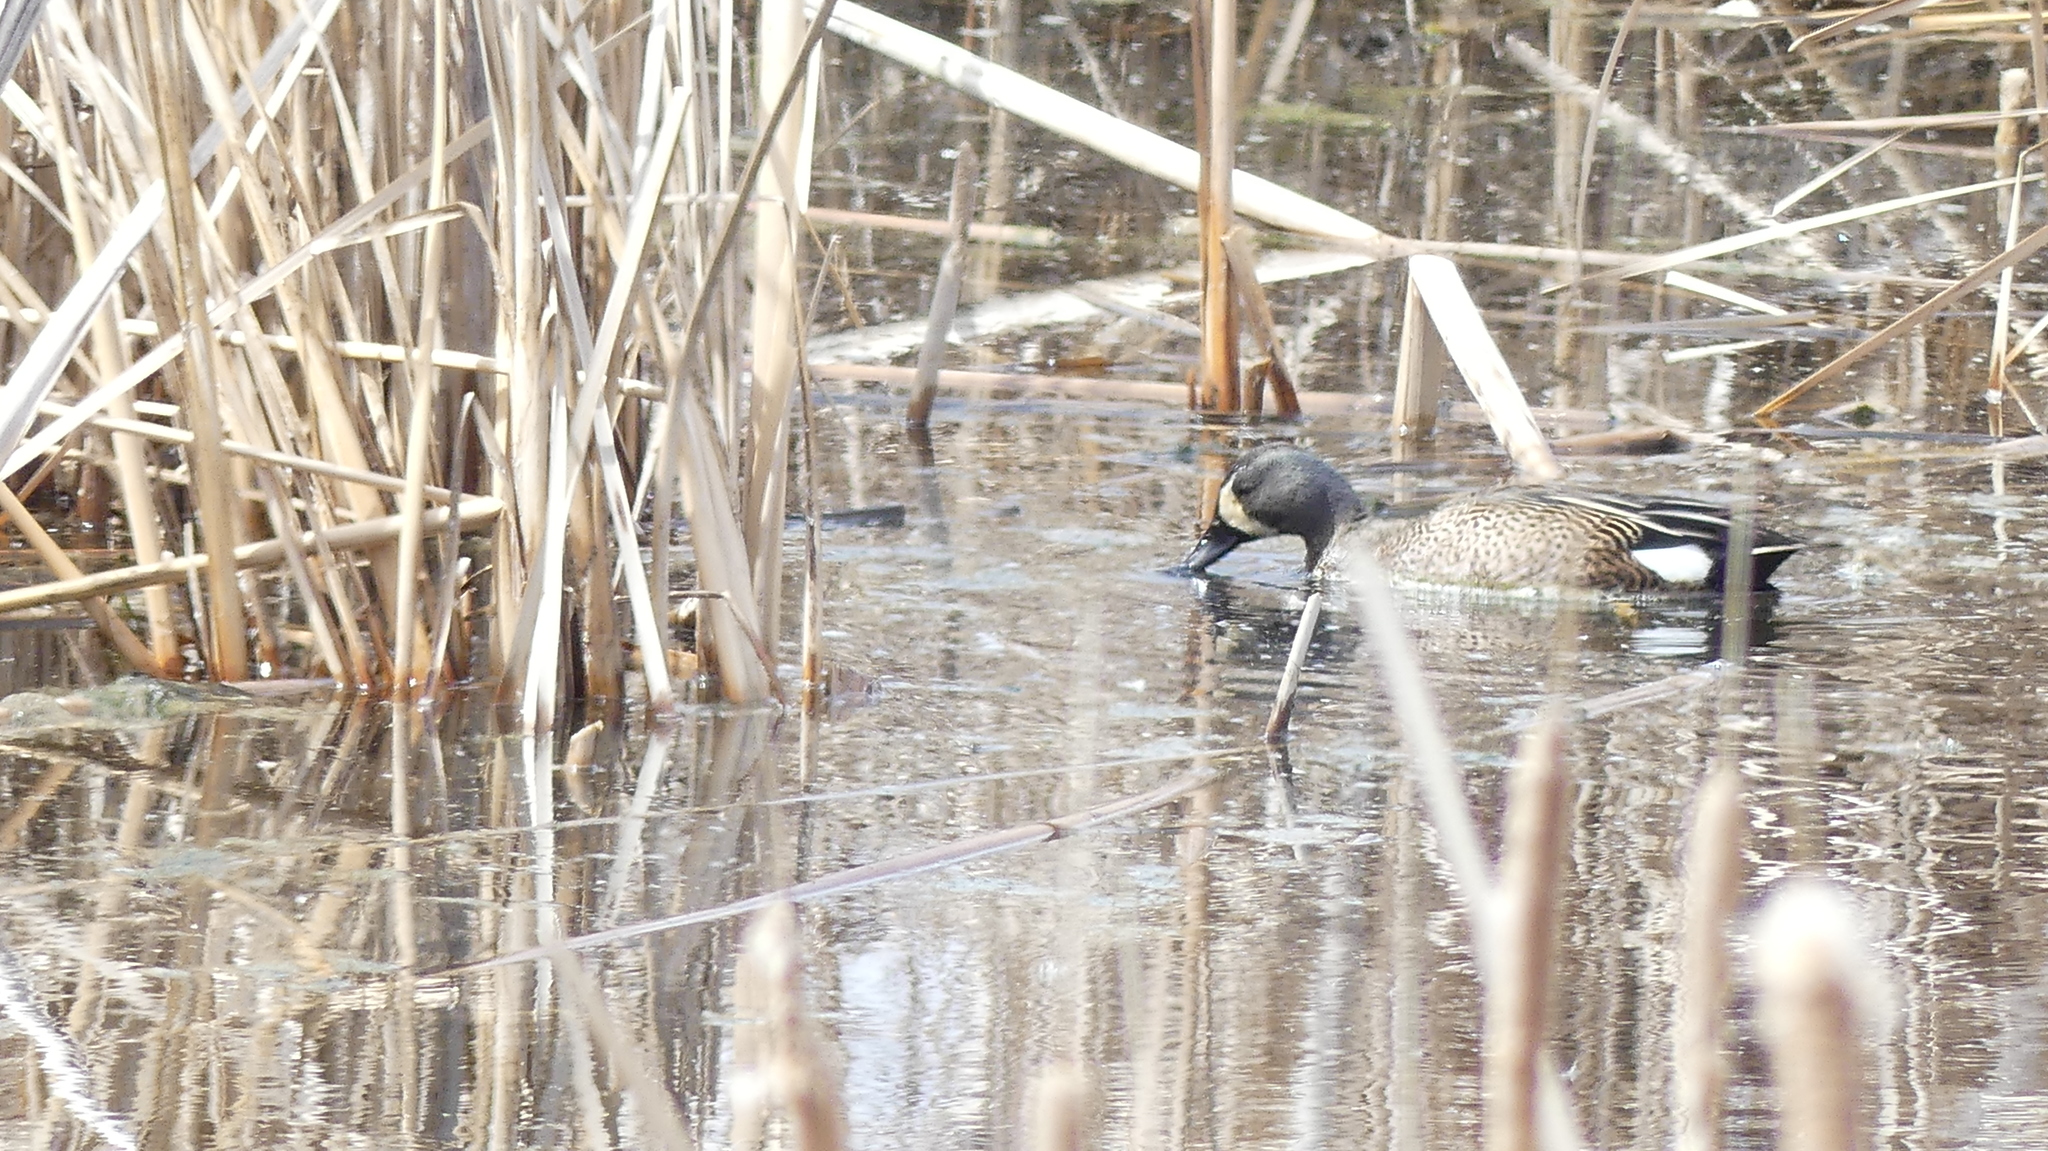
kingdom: Animalia
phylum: Chordata
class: Aves
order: Anseriformes
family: Anatidae
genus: Spatula
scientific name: Spatula discors
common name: Blue-winged teal
